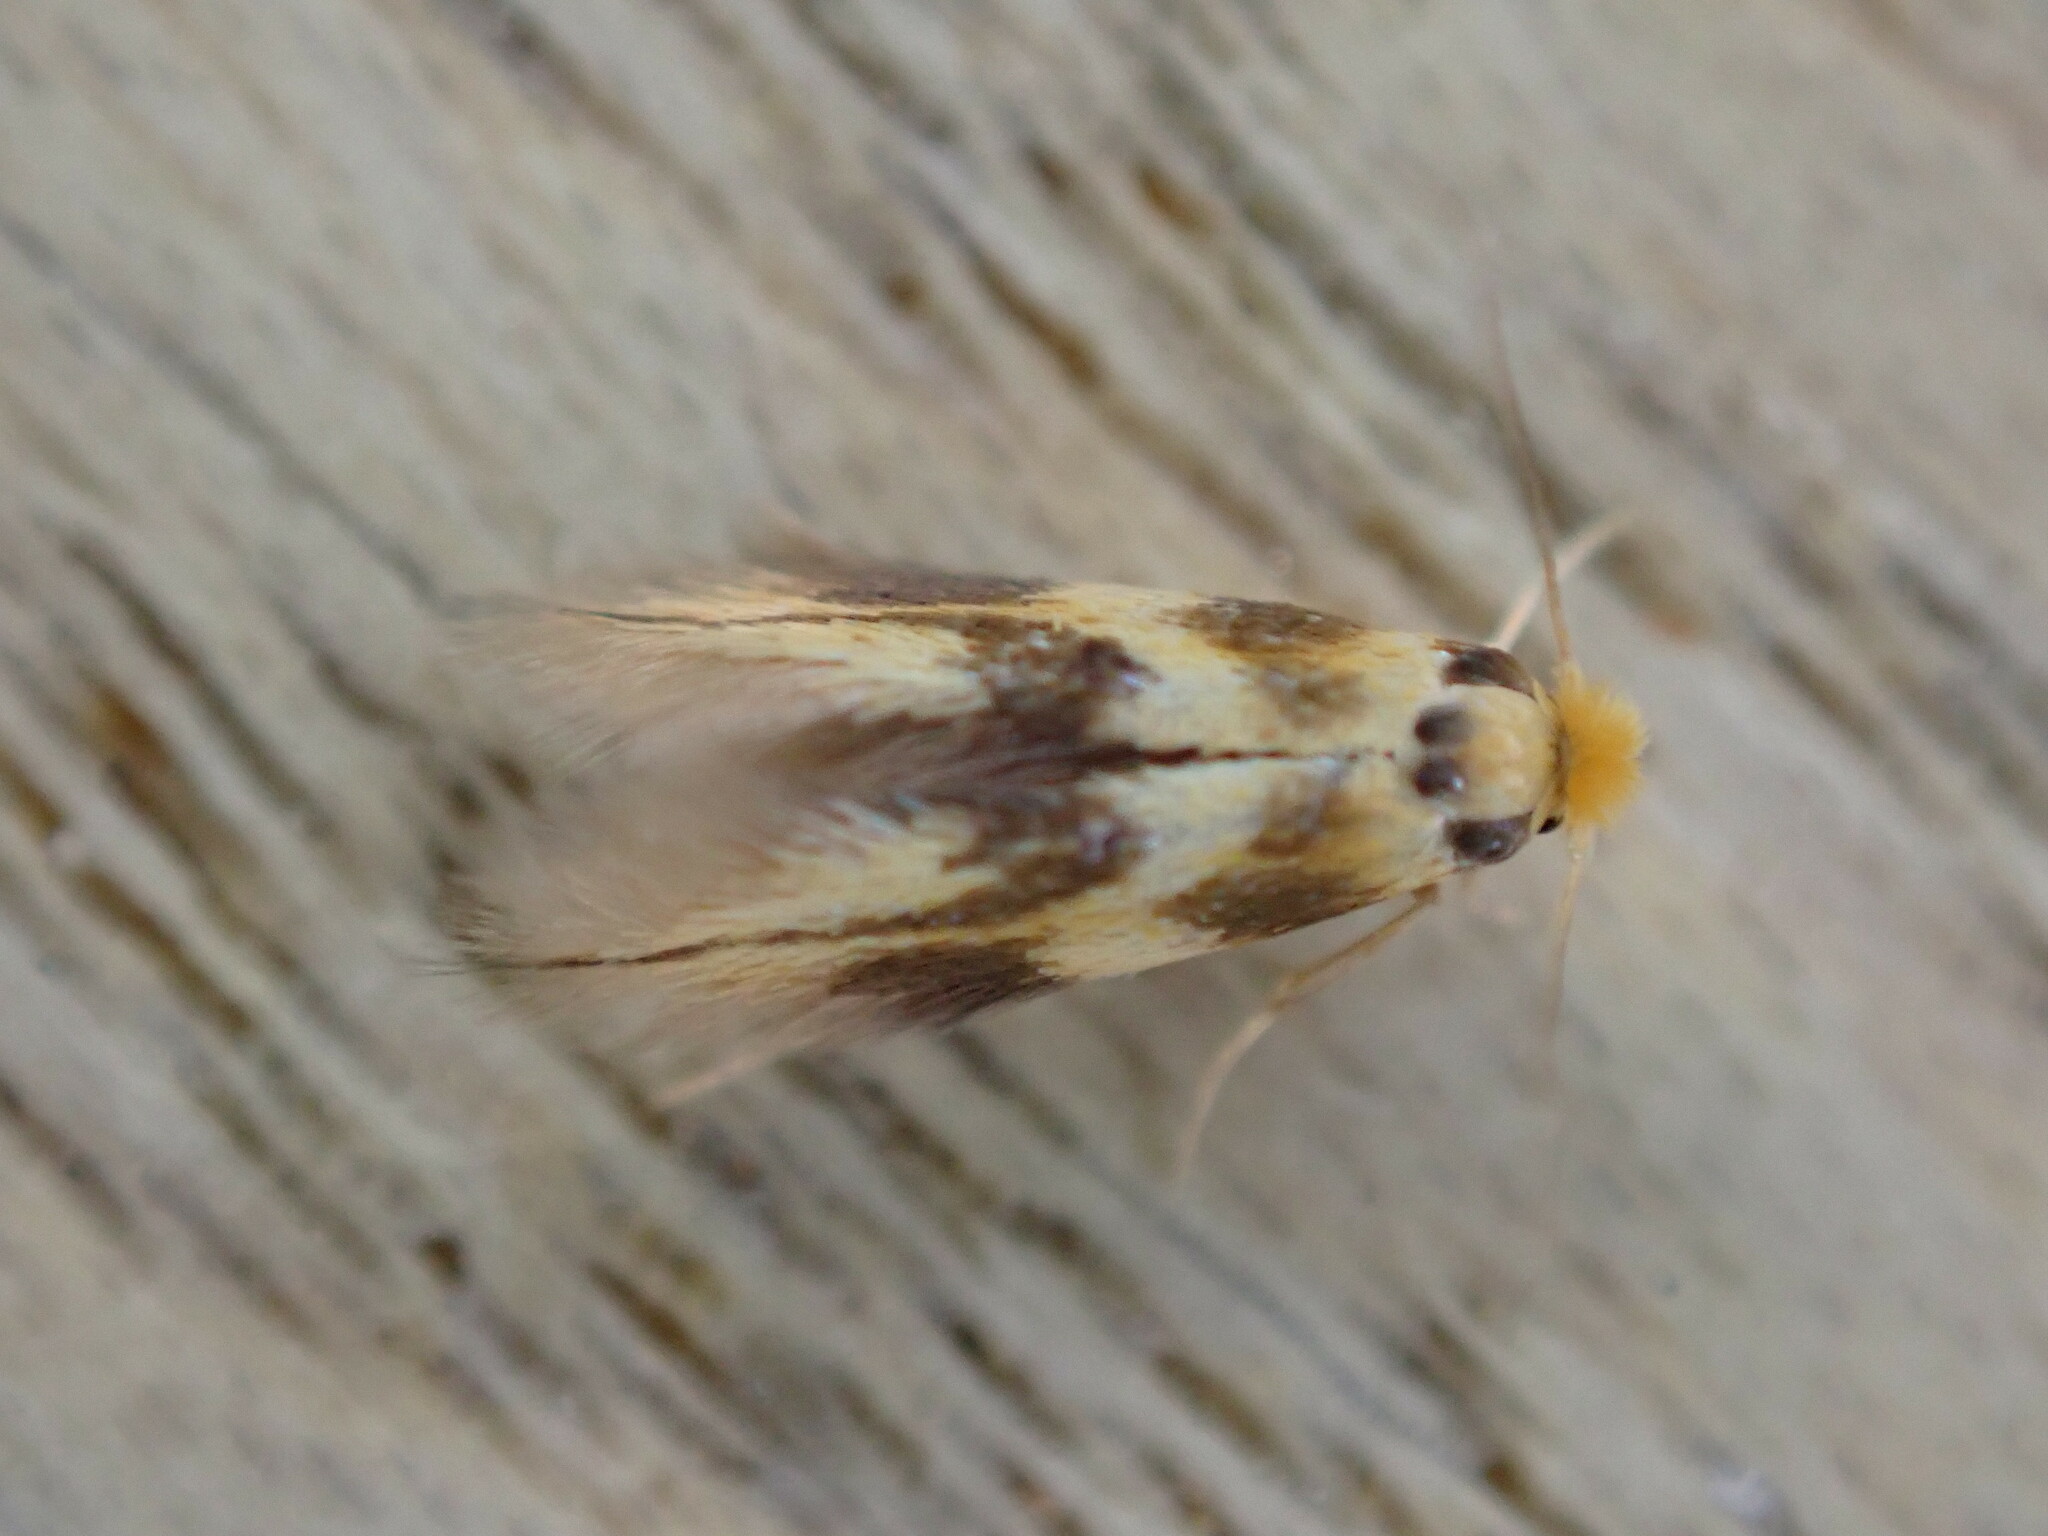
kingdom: Animalia
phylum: Arthropoda
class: Insecta
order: Lepidoptera
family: Bucculatricidae
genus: Bucculatrix
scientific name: Bucculatrix thoracella
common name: Lime bent-wing
